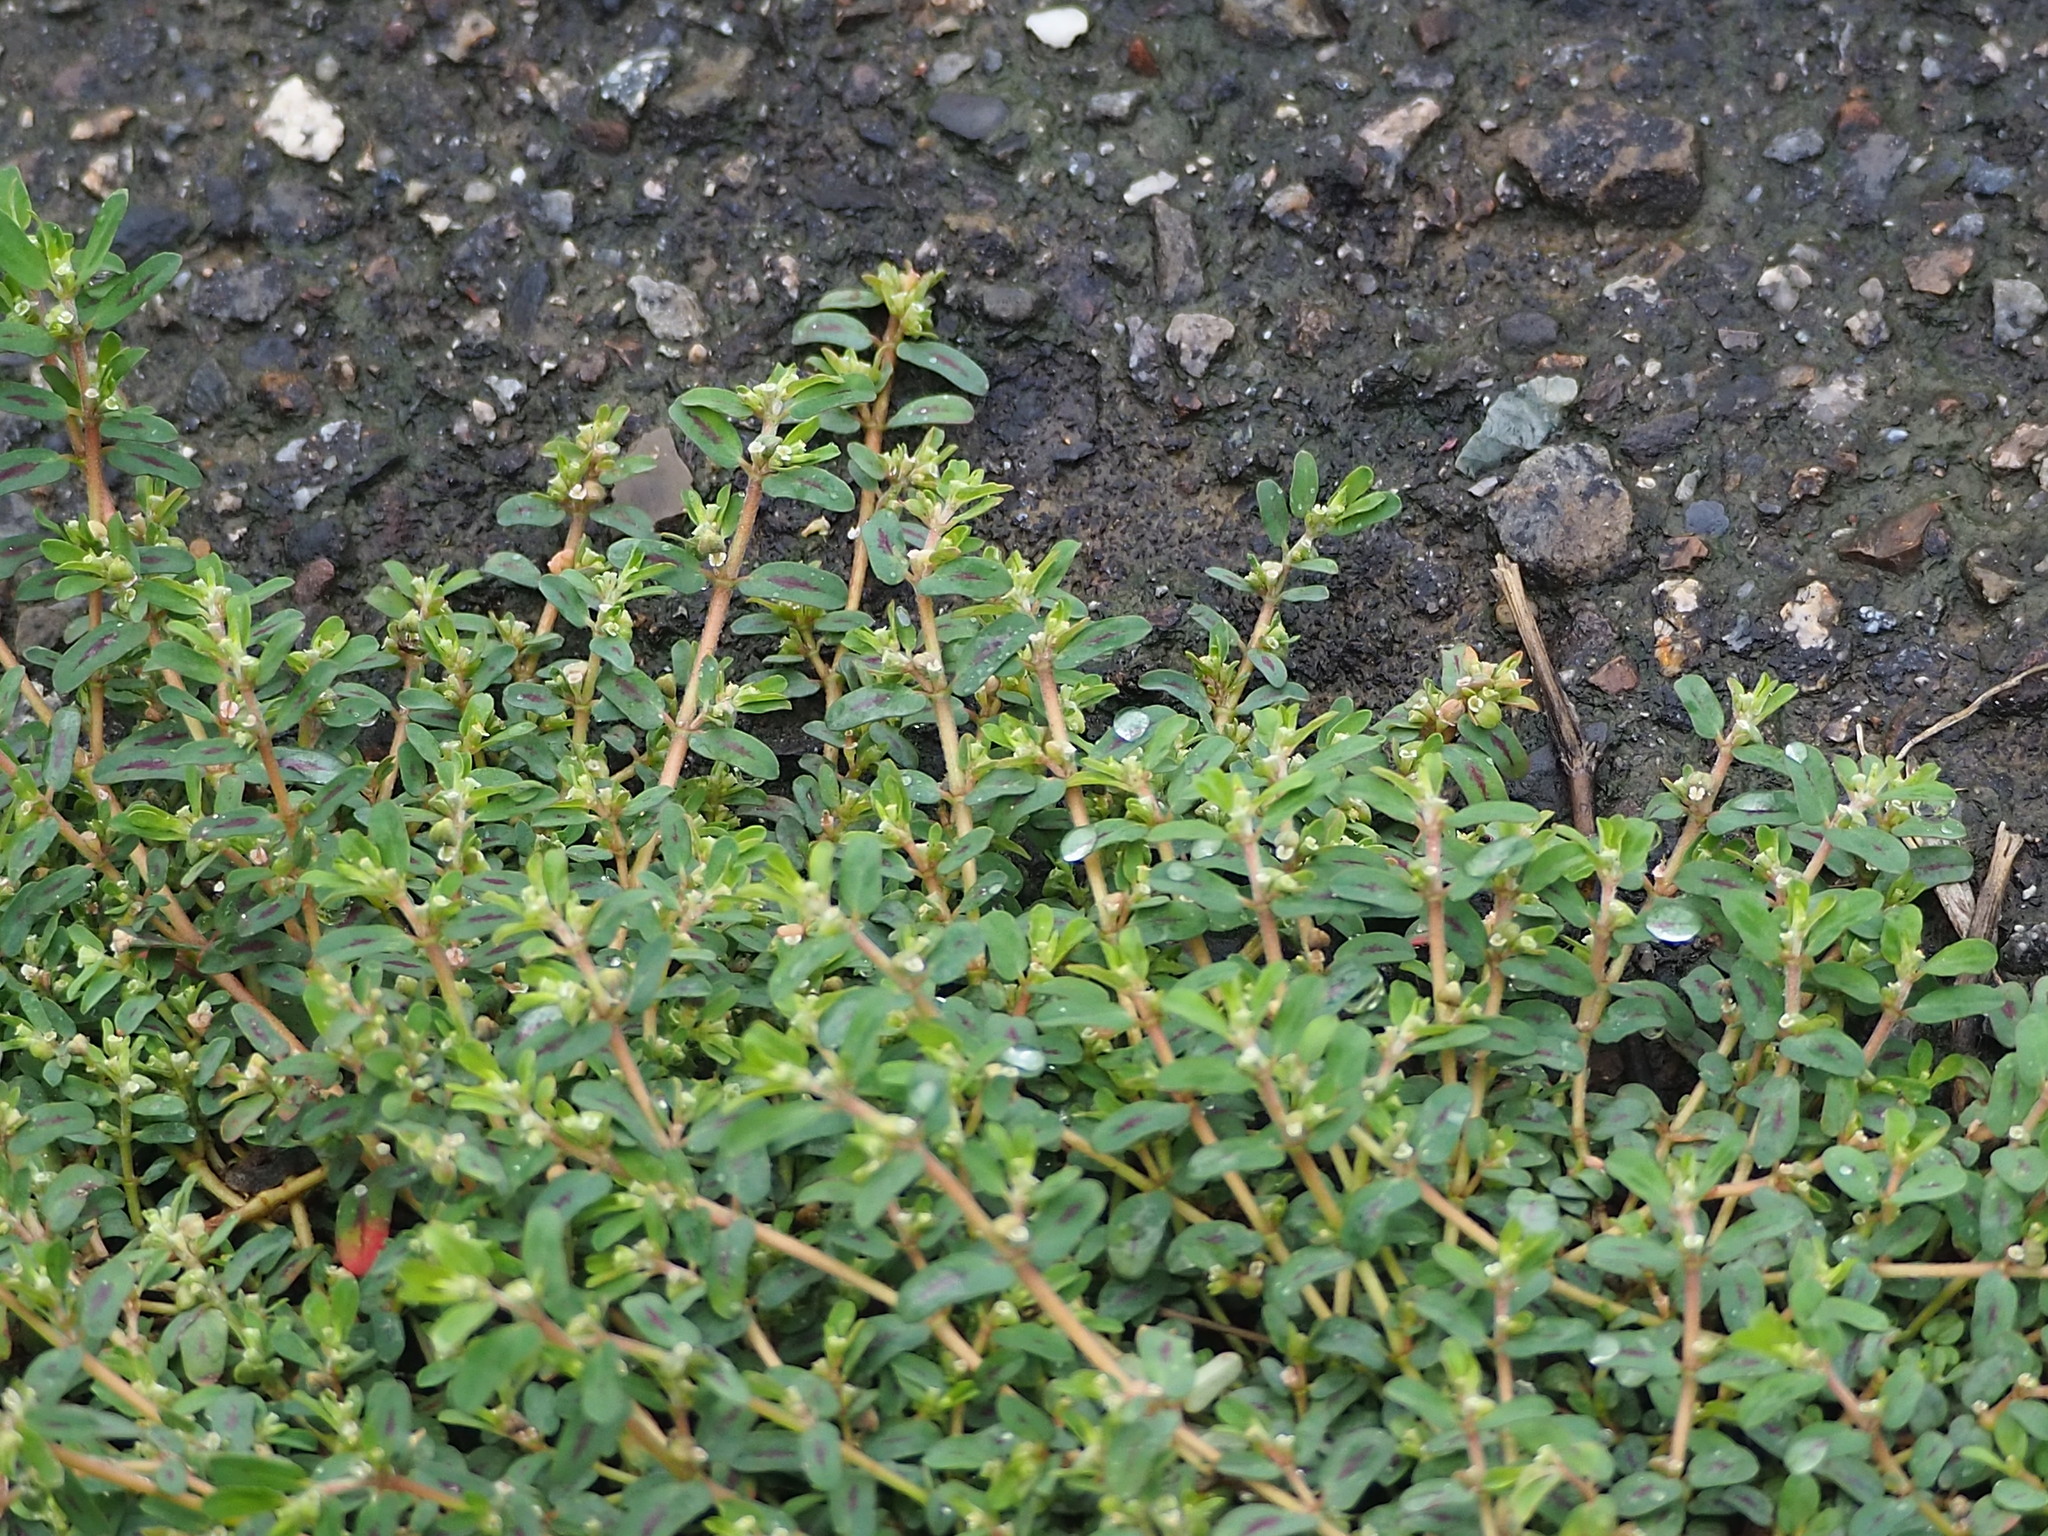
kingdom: Plantae
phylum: Tracheophyta
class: Magnoliopsida
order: Malpighiales
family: Euphorbiaceae
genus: Euphorbia
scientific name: Euphorbia maculata
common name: Spotted spurge
